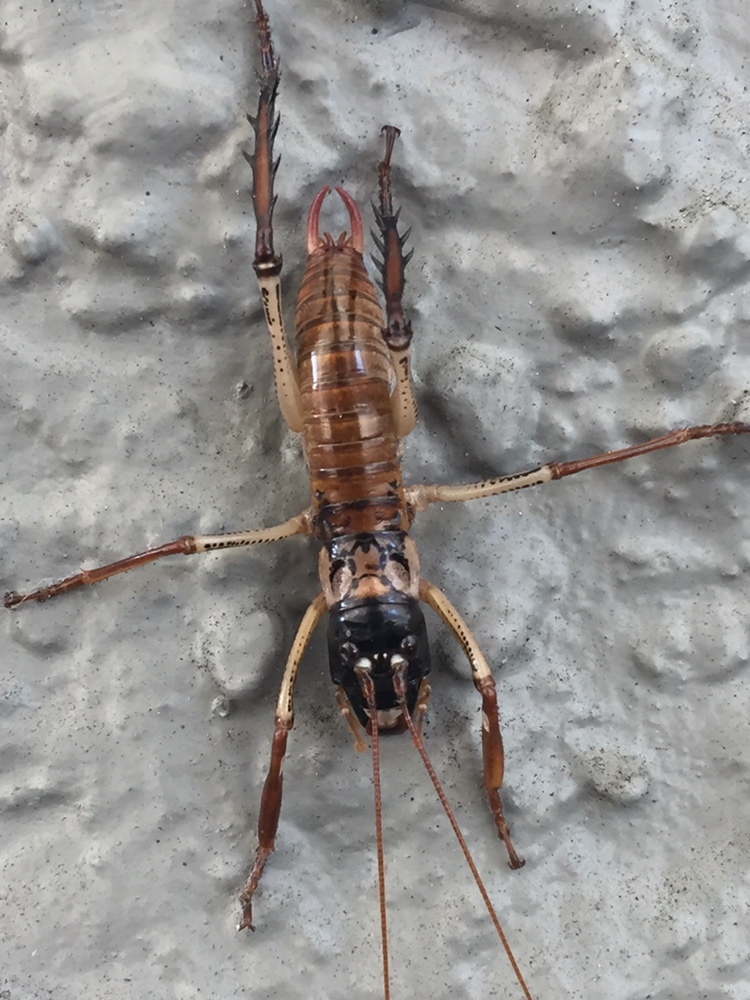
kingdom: Animalia
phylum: Arthropoda
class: Insecta
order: Orthoptera
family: Anostostomatidae
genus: Hemideina
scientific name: Hemideina thoracica
